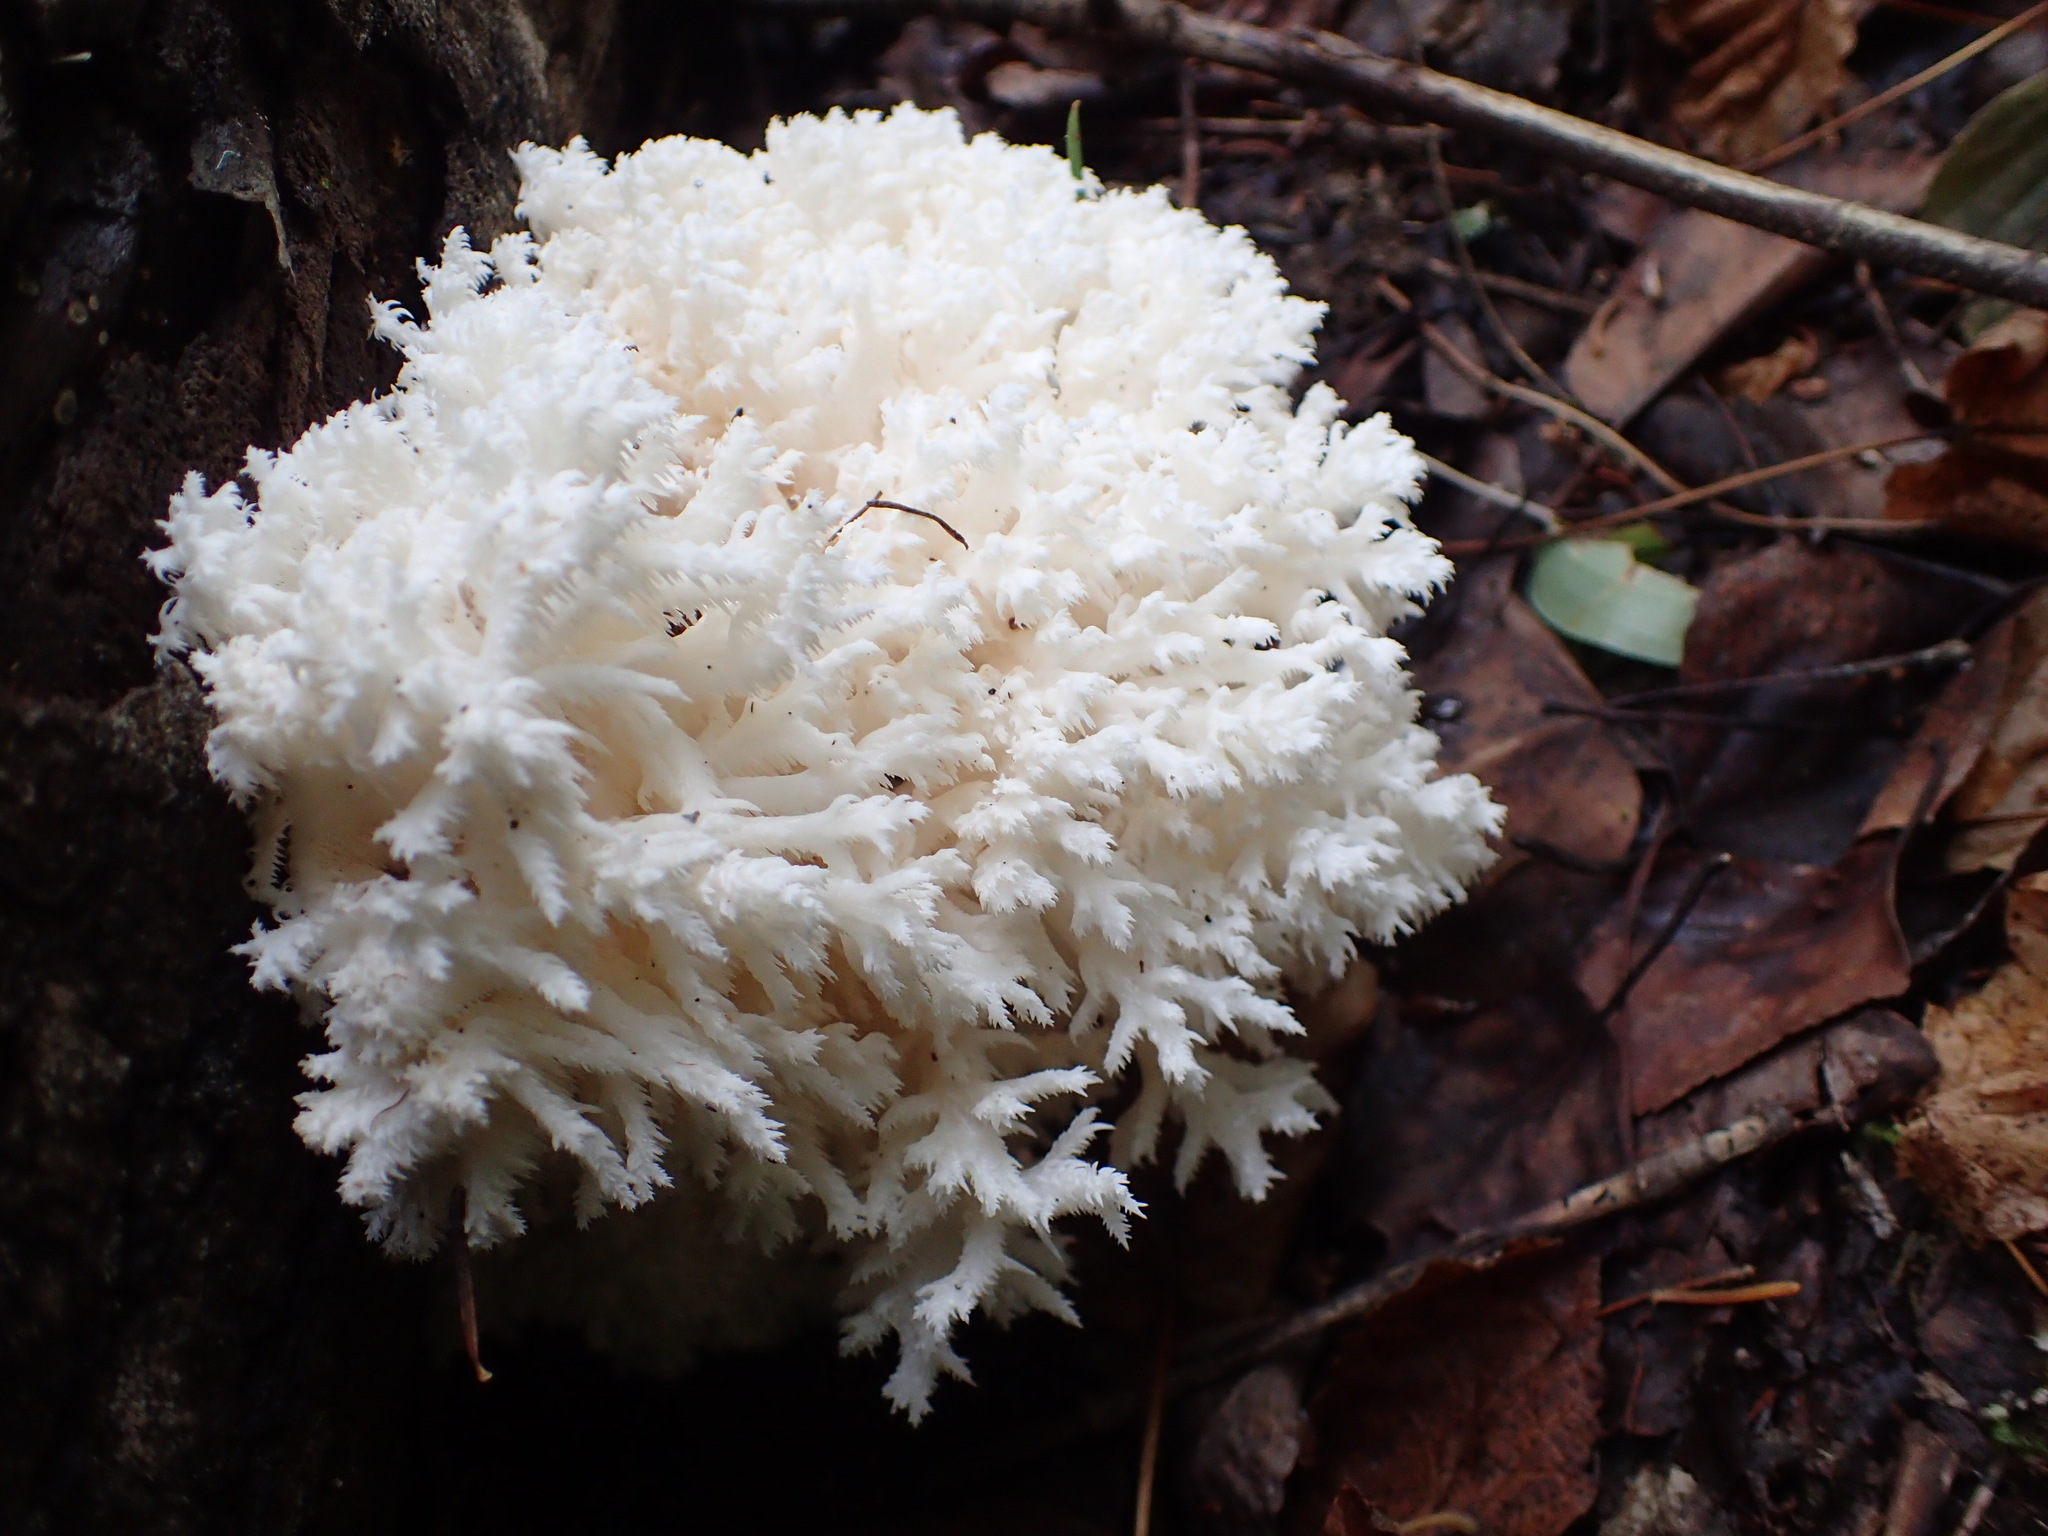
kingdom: Fungi
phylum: Basidiomycota
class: Agaricomycetes
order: Russulales
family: Hericiaceae
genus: Hericium
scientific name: Hericium coralloides
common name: Coral tooth
